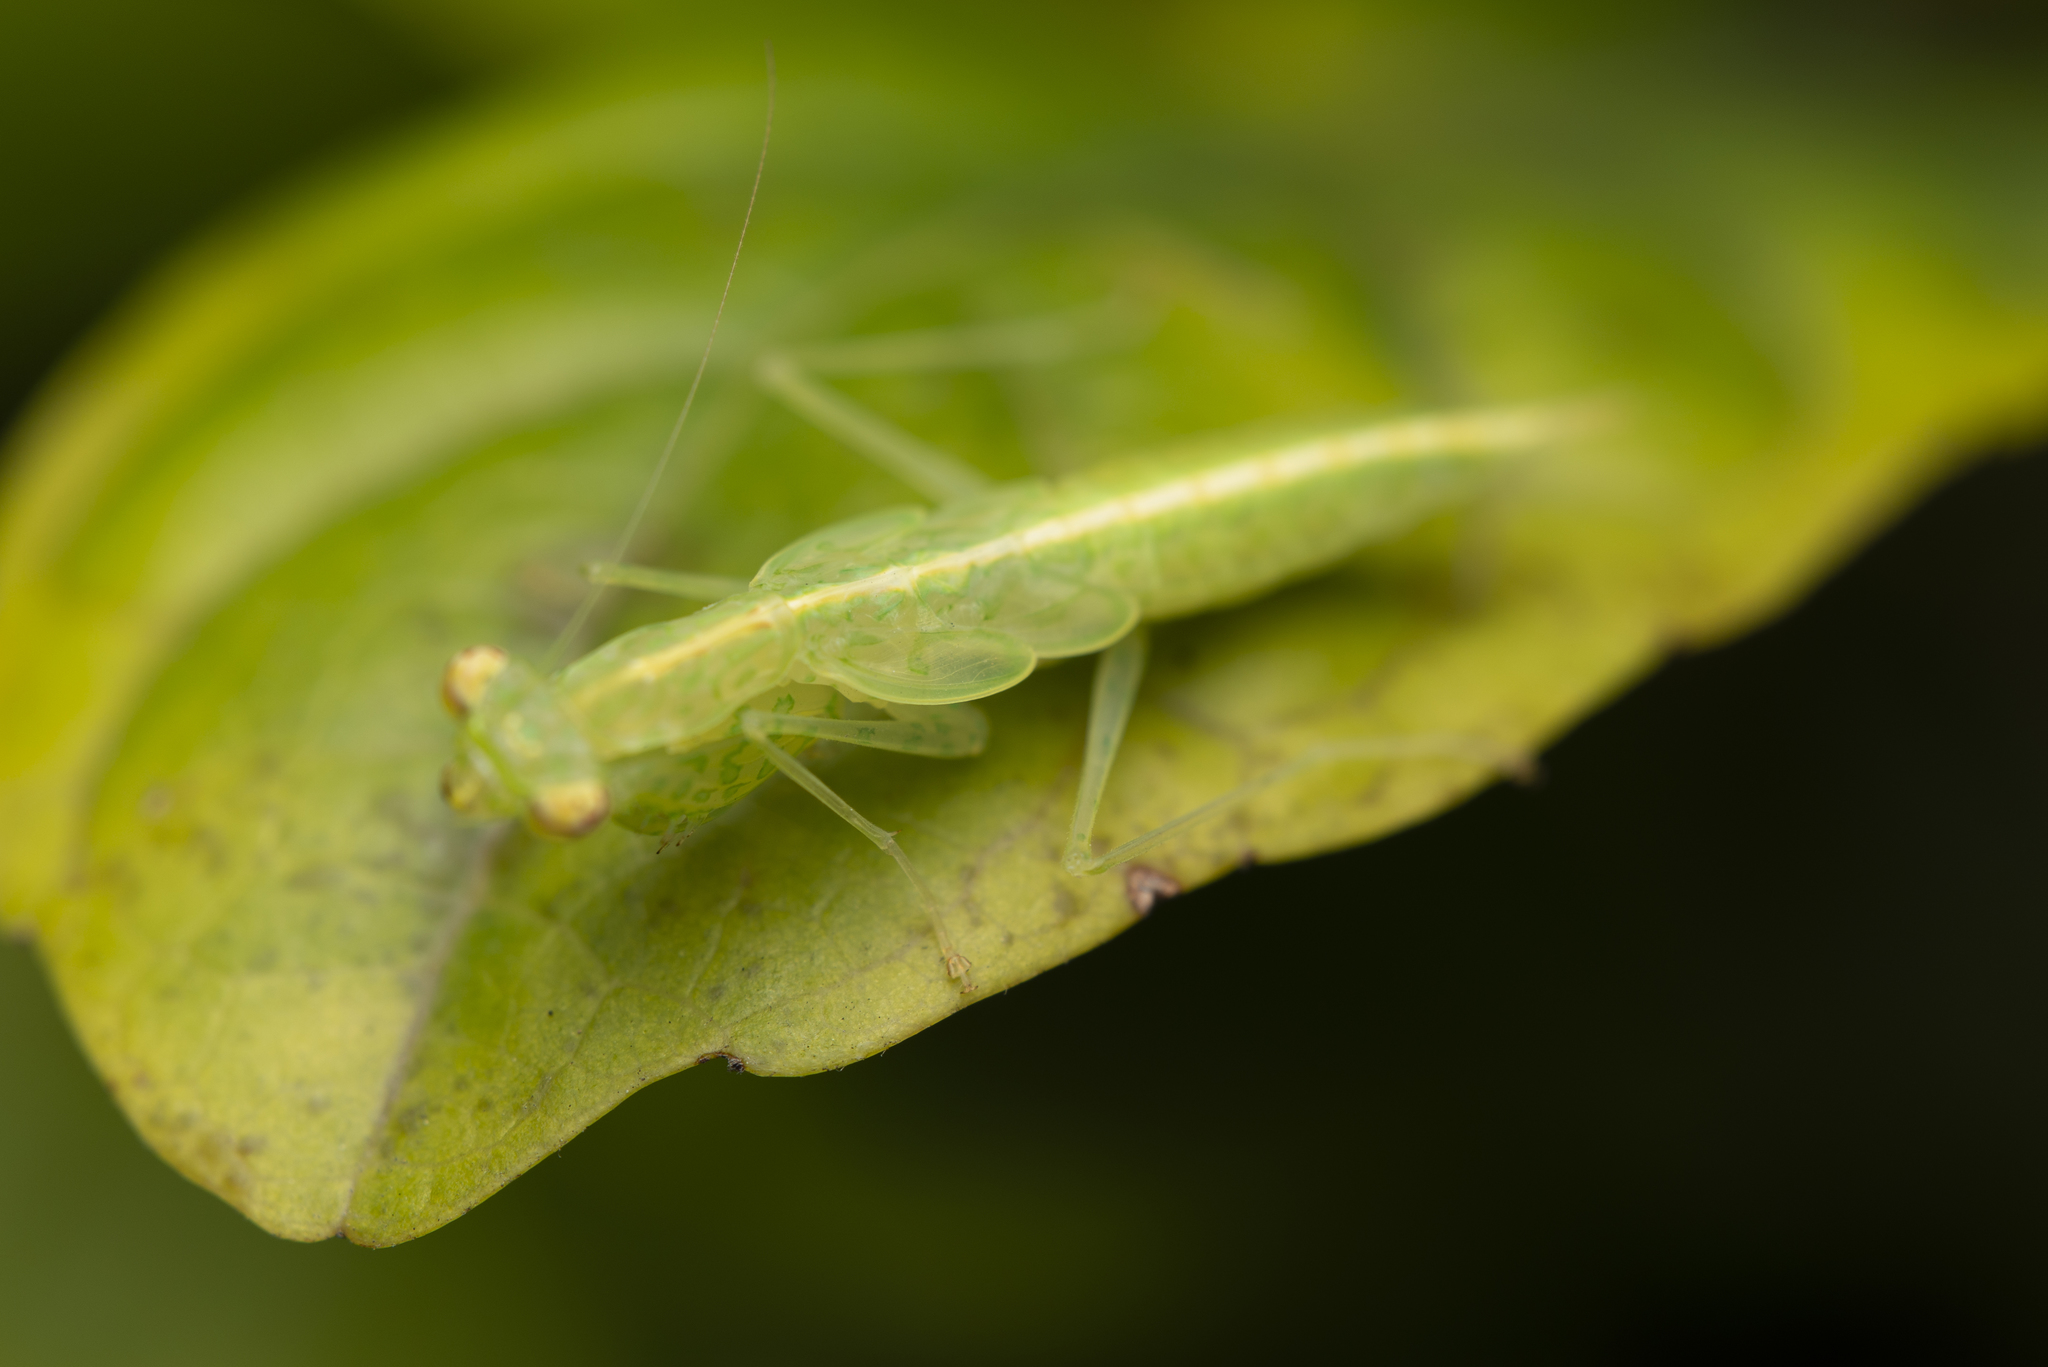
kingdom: Animalia
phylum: Arthropoda
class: Insecta
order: Mantodea
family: Nanomantidae
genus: Tropidomantis
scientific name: Tropidomantis gressitti
